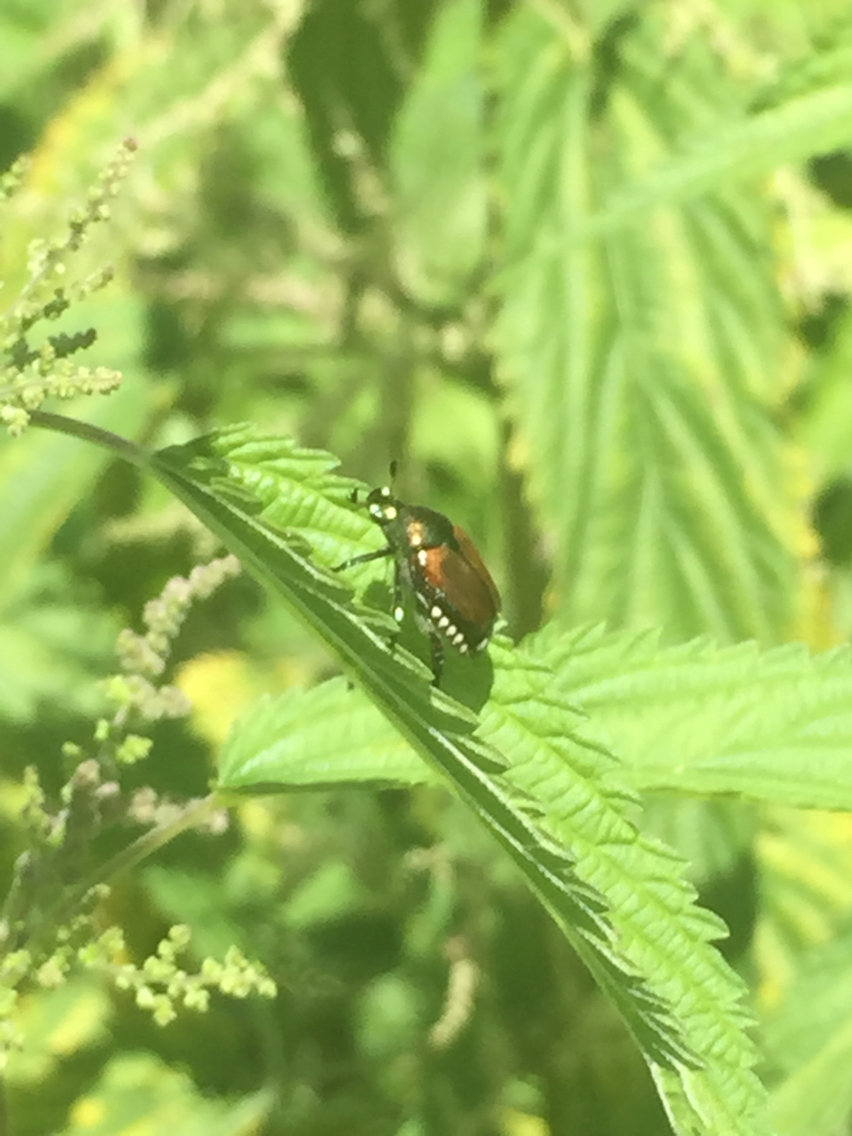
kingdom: Animalia
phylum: Arthropoda
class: Insecta
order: Coleoptera
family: Scarabaeidae
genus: Popillia
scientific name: Popillia japonica
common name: Japanese beetle
